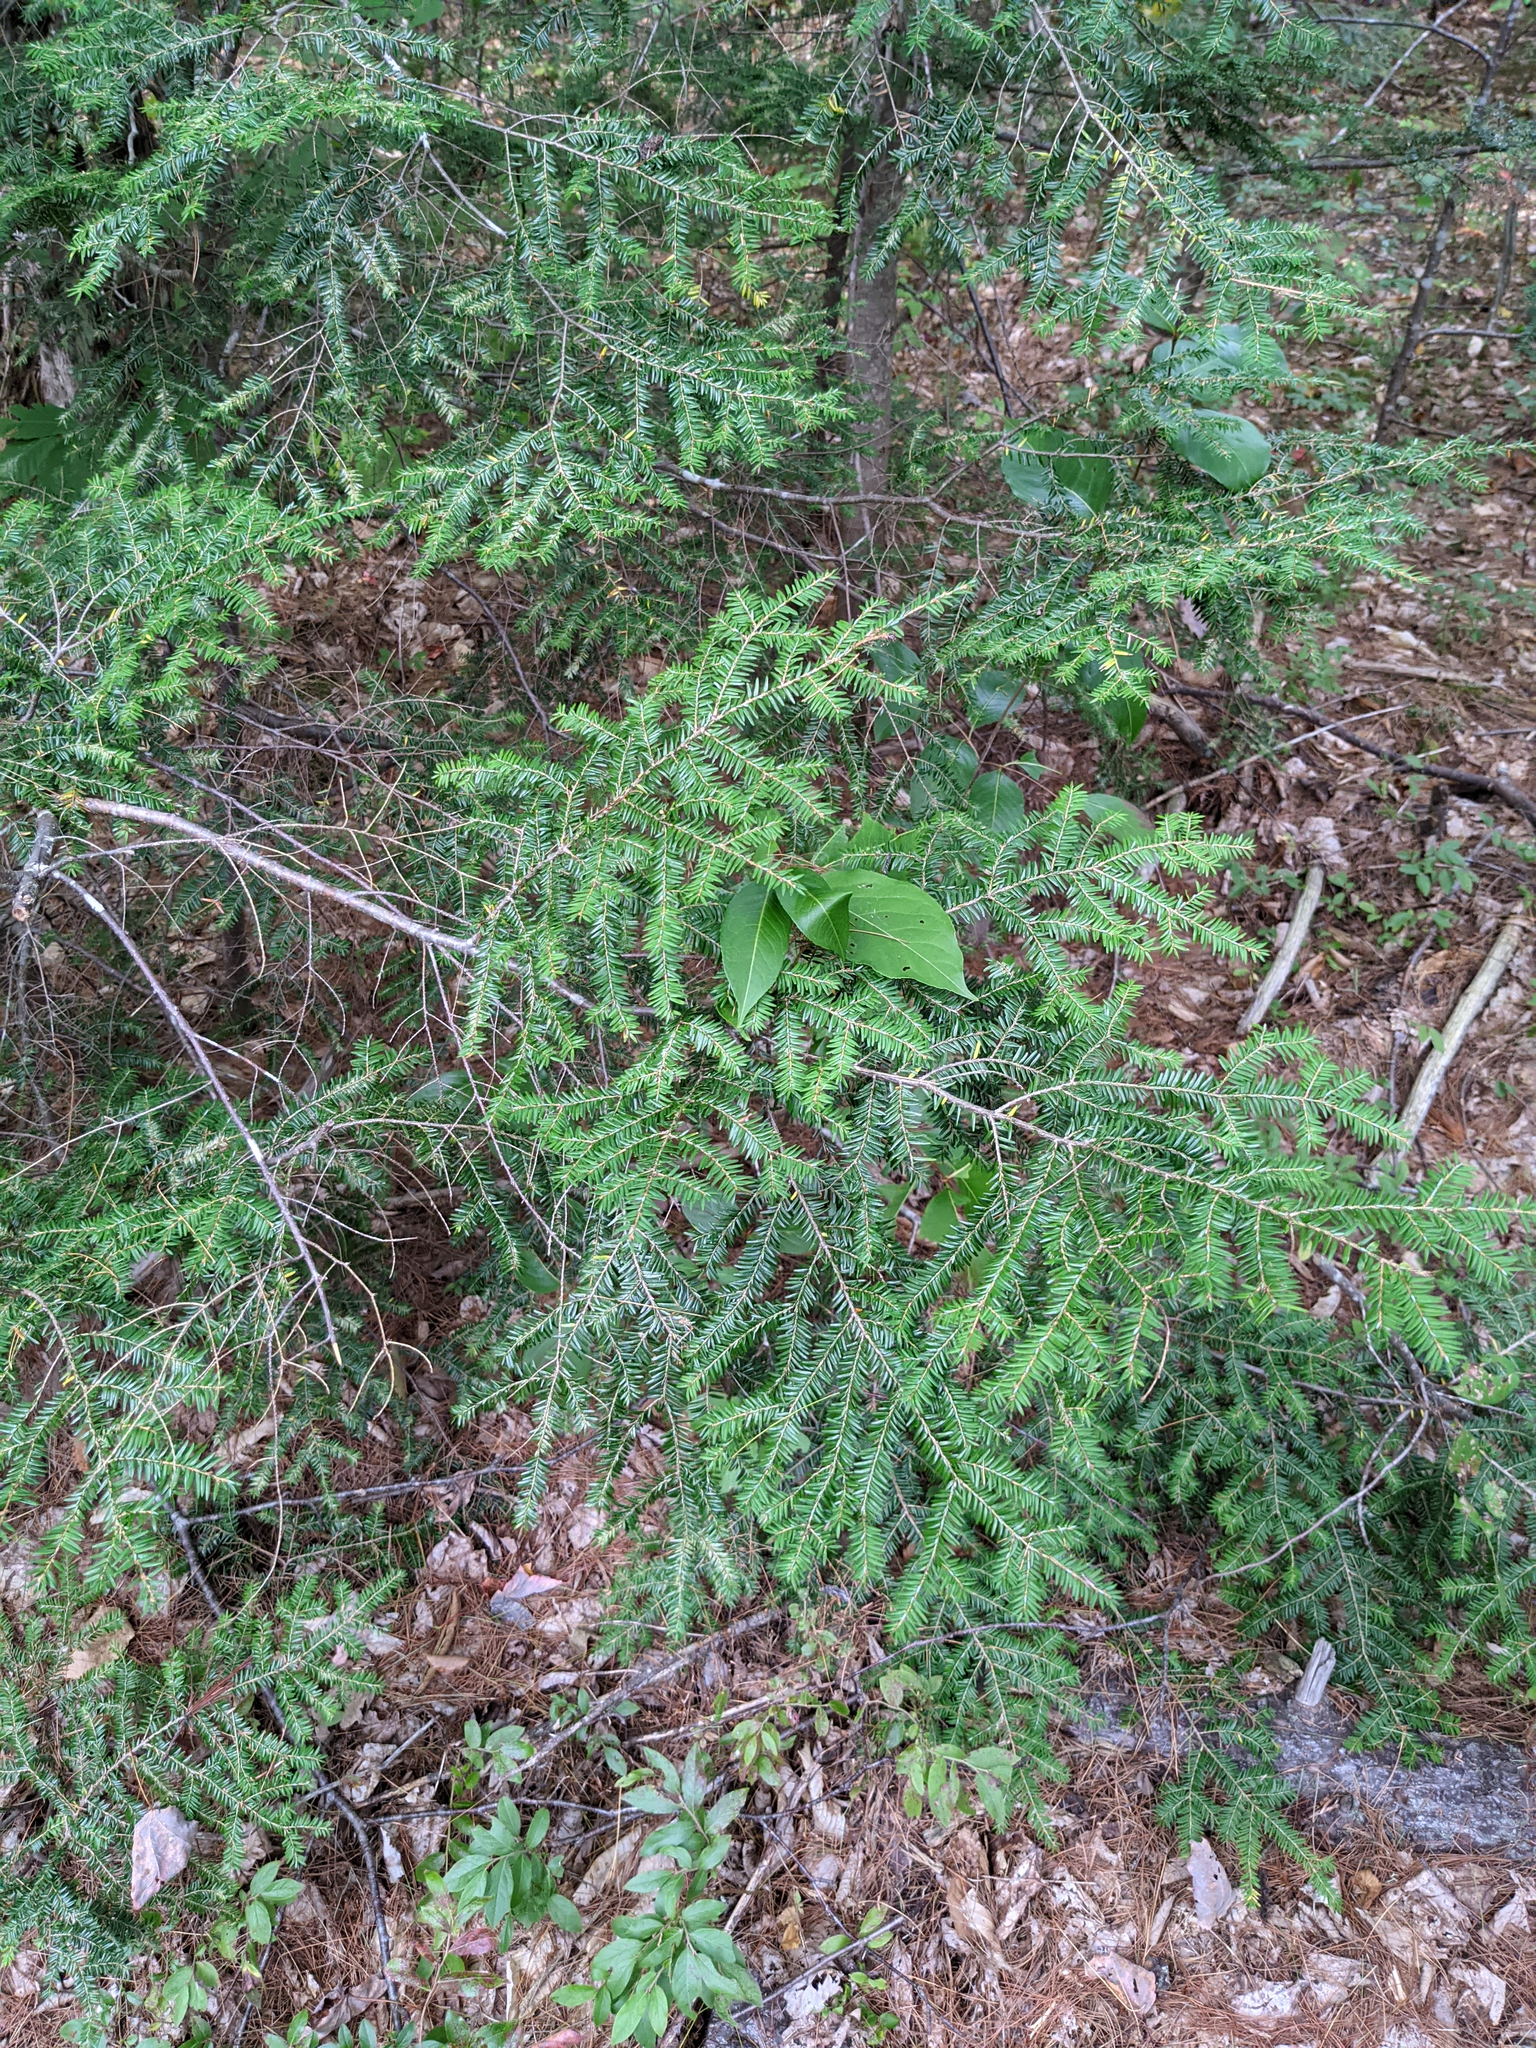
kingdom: Plantae
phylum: Tracheophyta
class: Pinopsida
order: Pinales
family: Pinaceae
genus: Tsuga
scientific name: Tsuga canadensis
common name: Eastern hemlock
